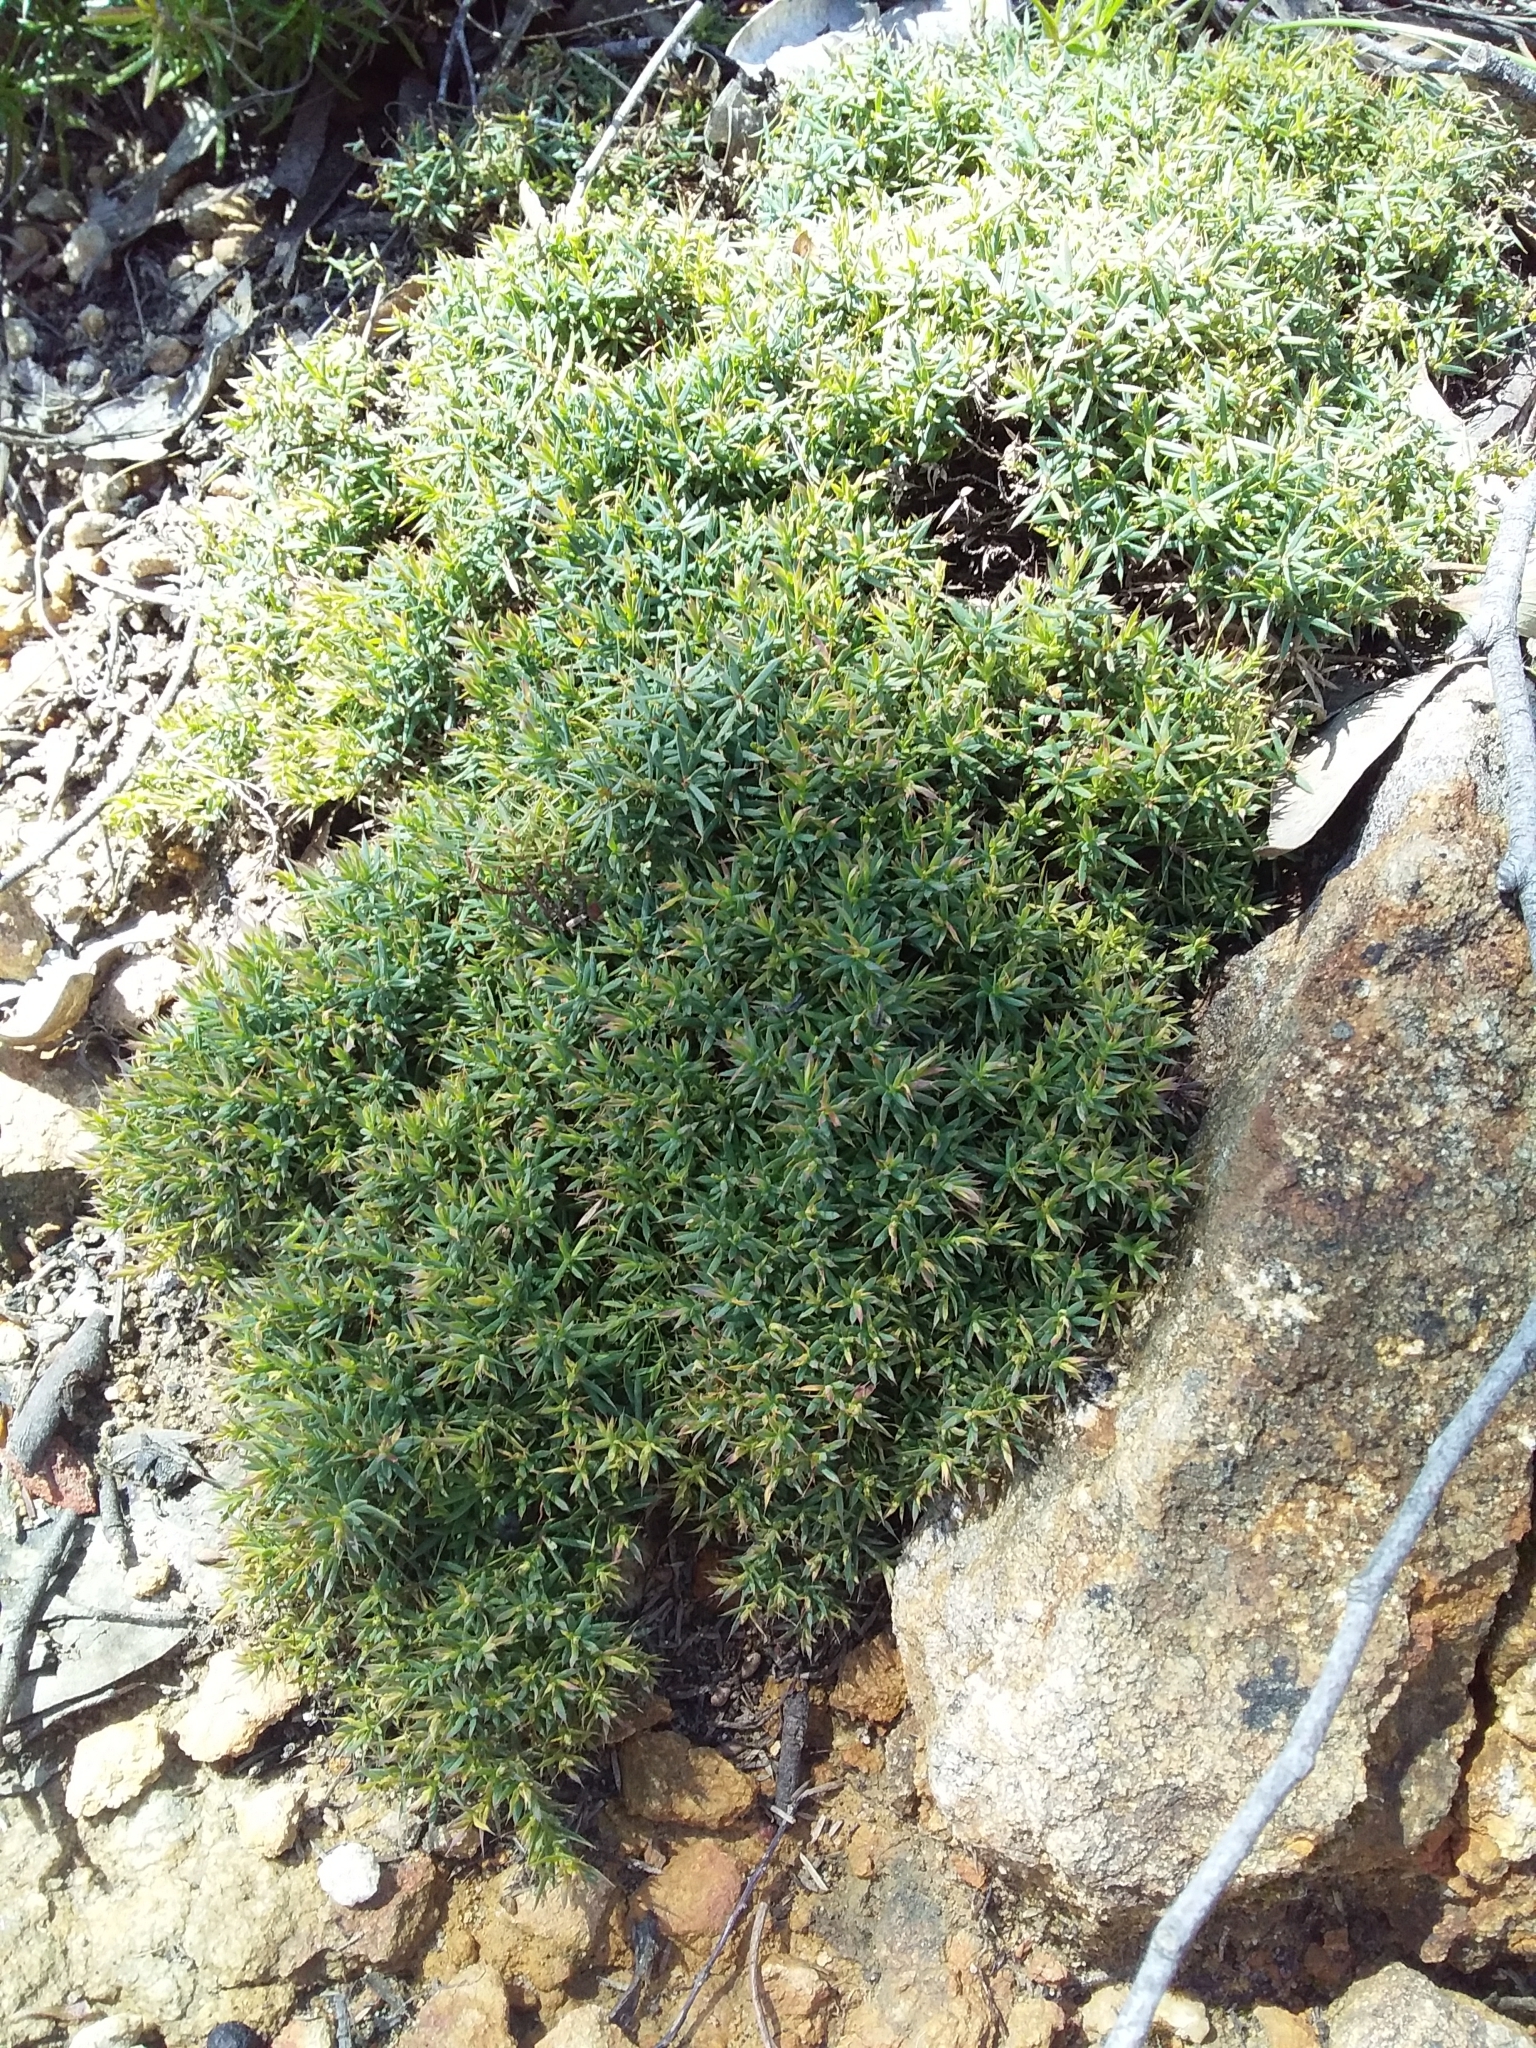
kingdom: Plantae
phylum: Tracheophyta
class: Magnoliopsida
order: Ericales
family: Ericaceae
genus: Styphelia
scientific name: Styphelia humifusa
